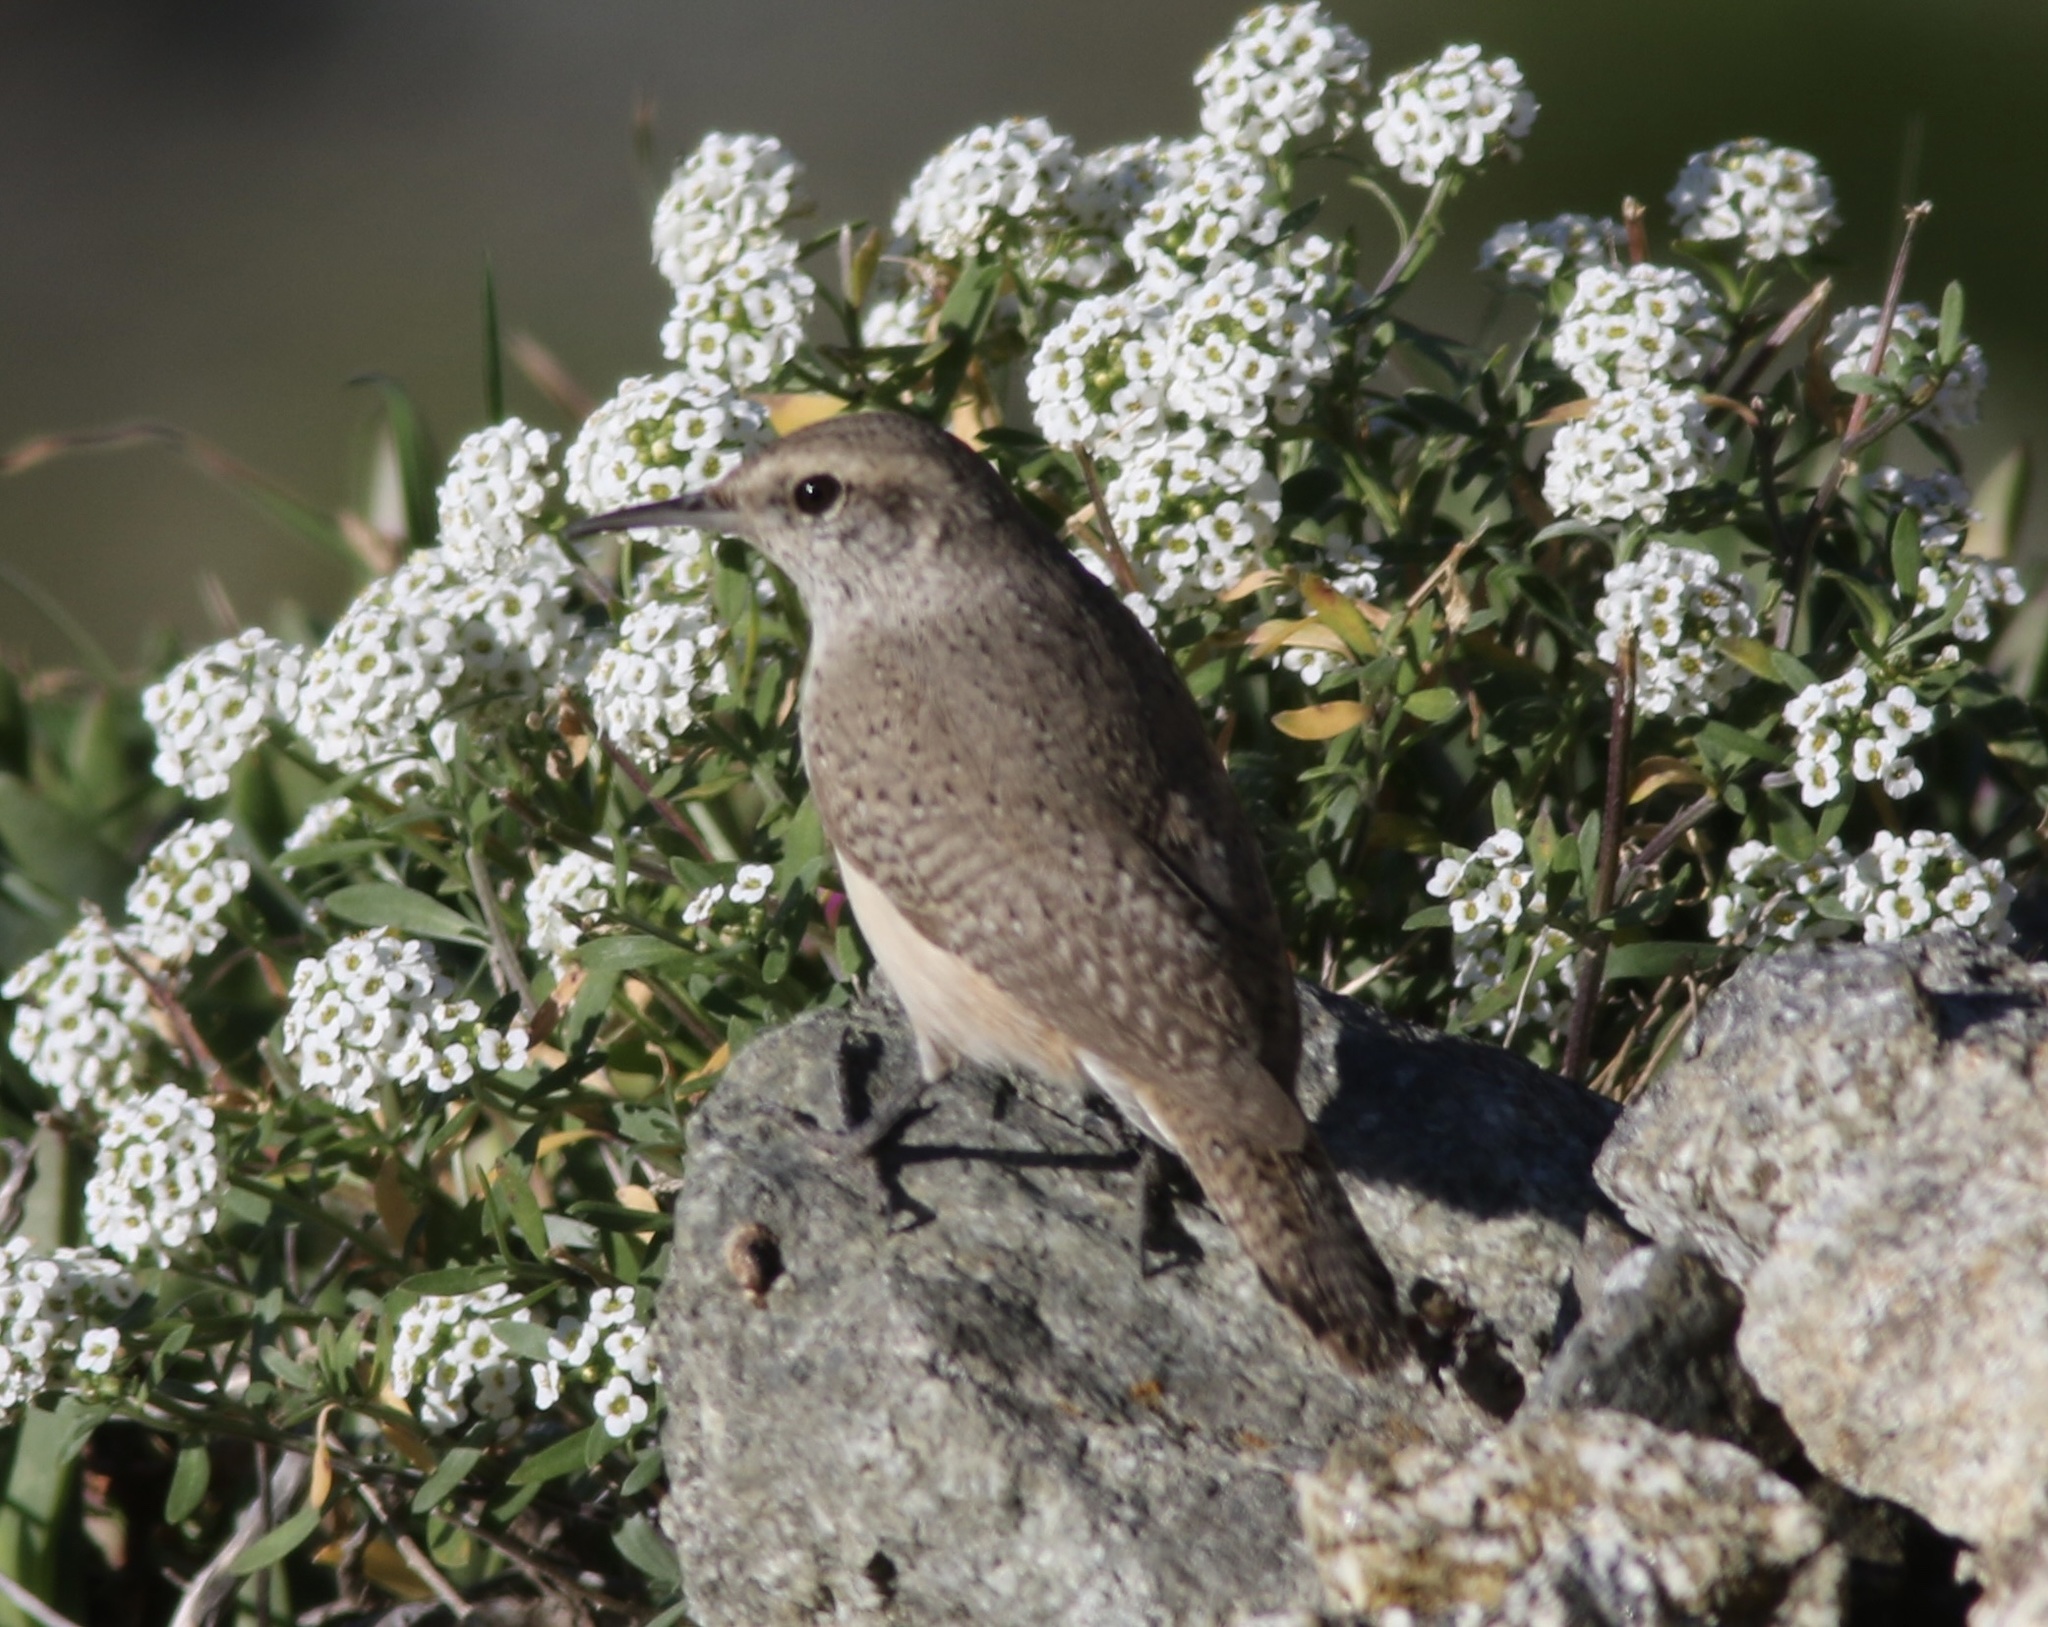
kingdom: Animalia
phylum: Chordata
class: Aves
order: Passeriformes
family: Troglodytidae
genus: Salpinctes
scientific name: Salpinctes obsoletus
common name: Rock wren
